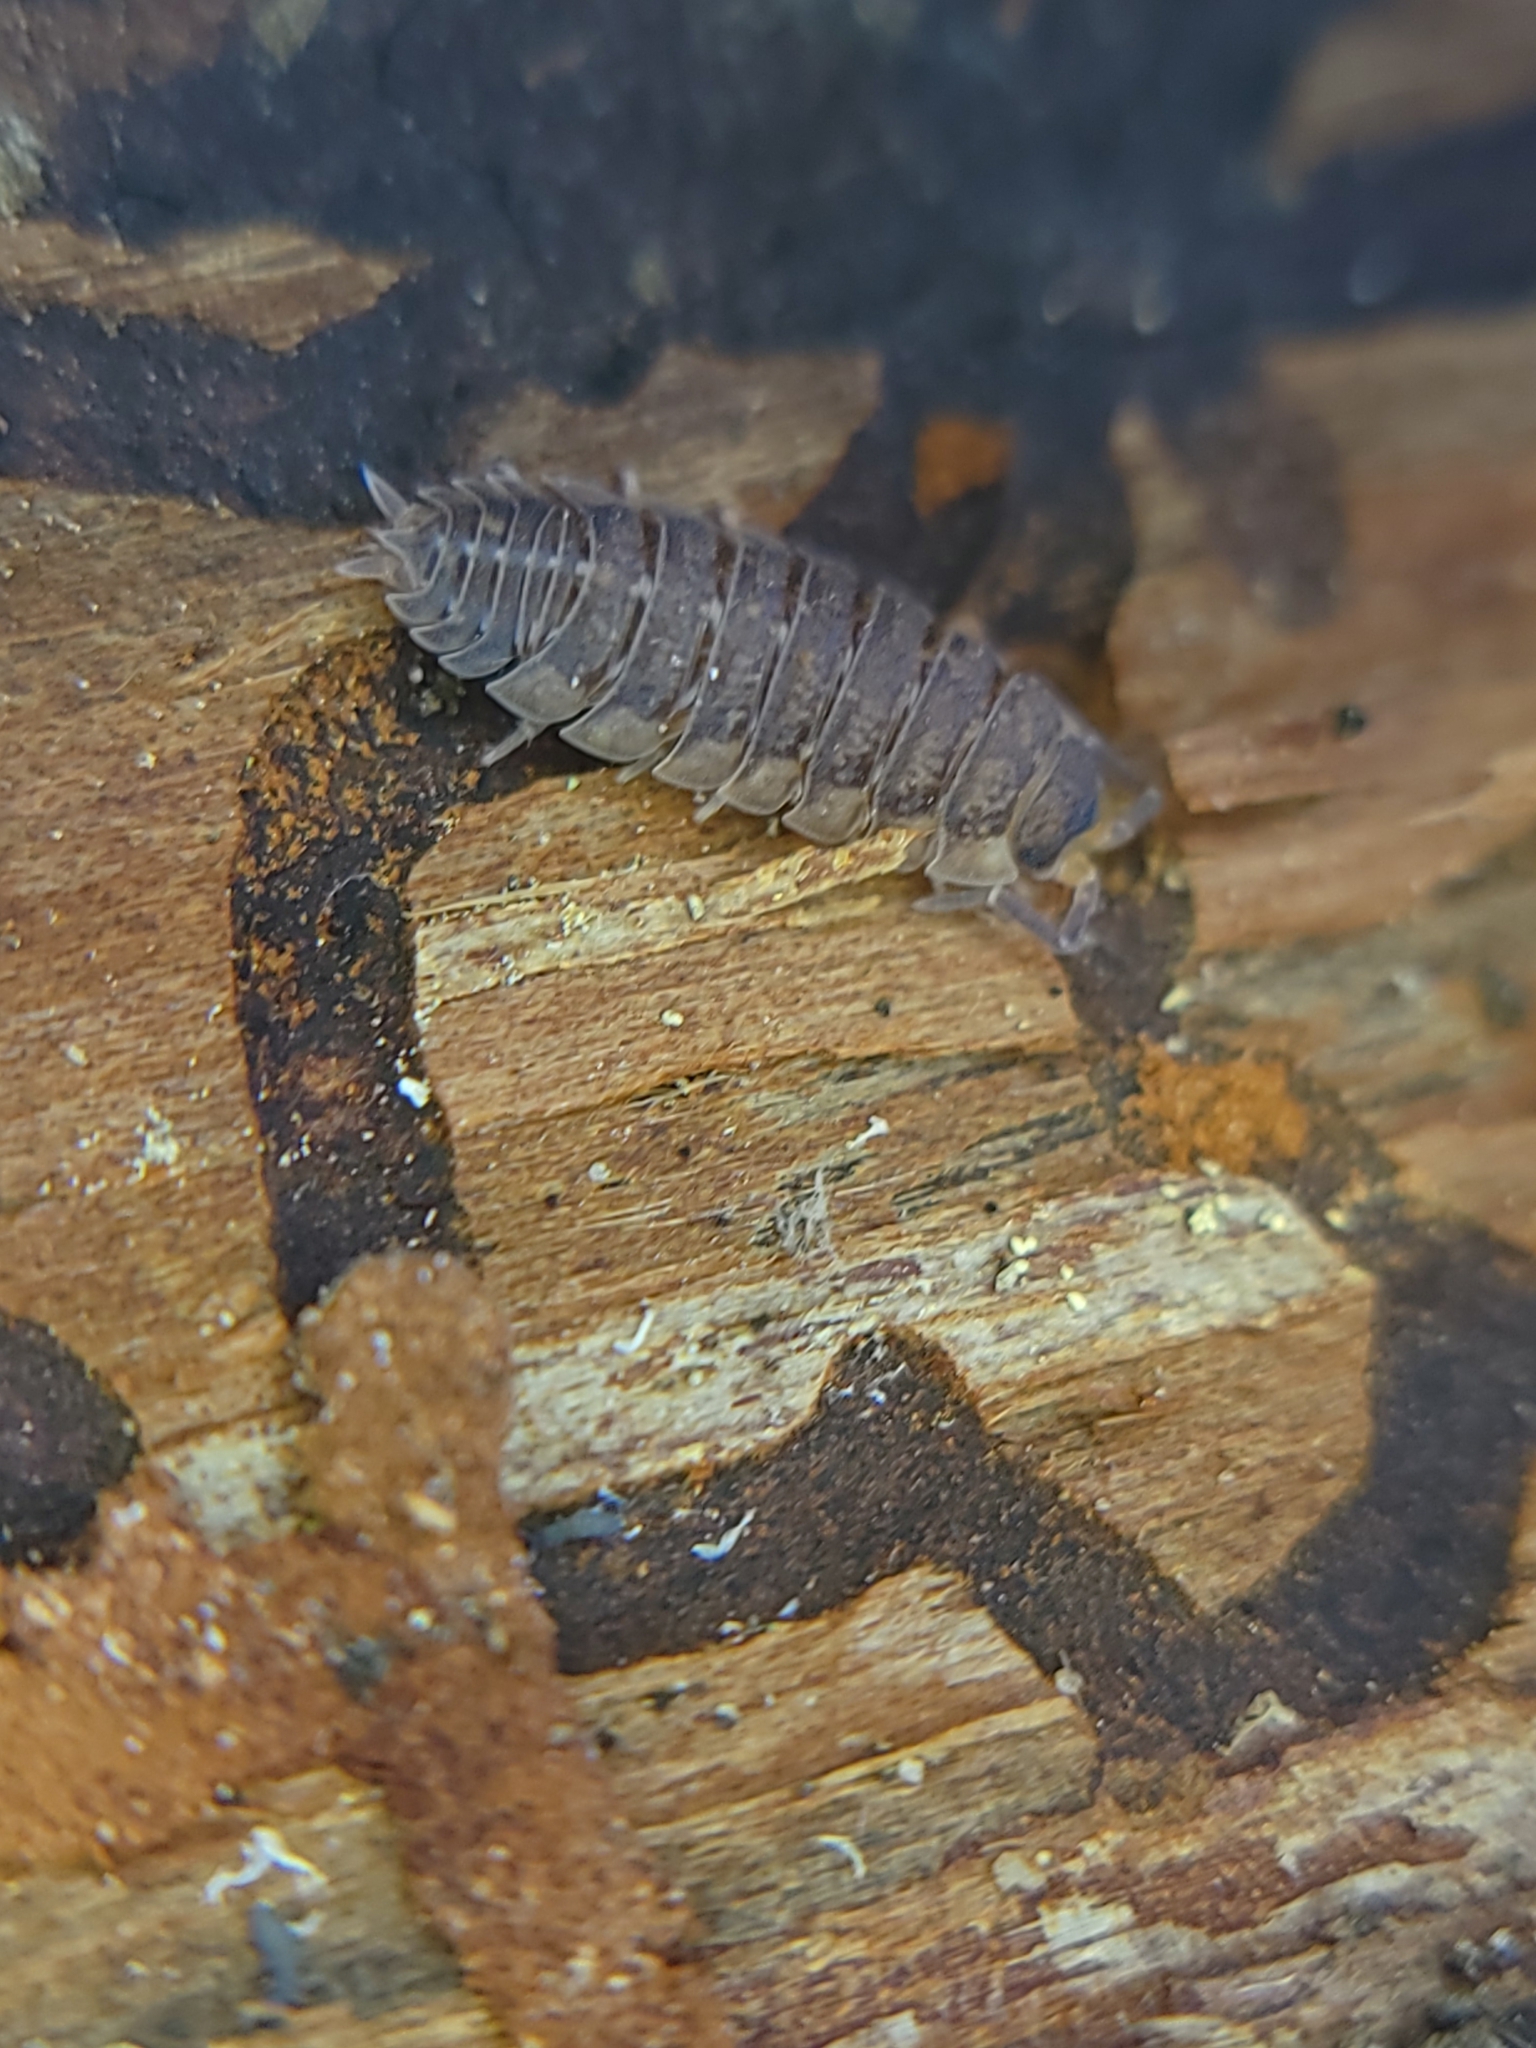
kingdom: Animalia
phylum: Arthropoda
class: Malacostraca
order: Isopoda
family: Porcellionidae
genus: Porcellio
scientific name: Porcellio scaber
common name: Common rough woodlouse
